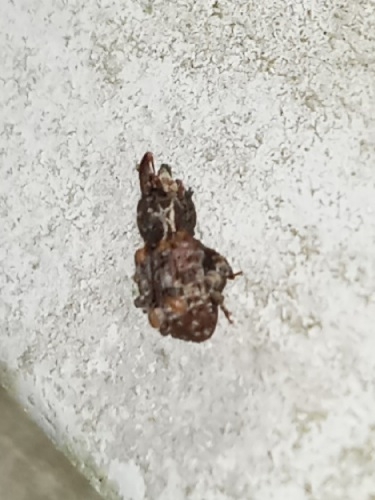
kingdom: Animalia
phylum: Arthropoda
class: Insecta
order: Coleoptera
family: Curculionidae
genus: Conotrachelus
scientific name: Conotrachelus carolinensis
